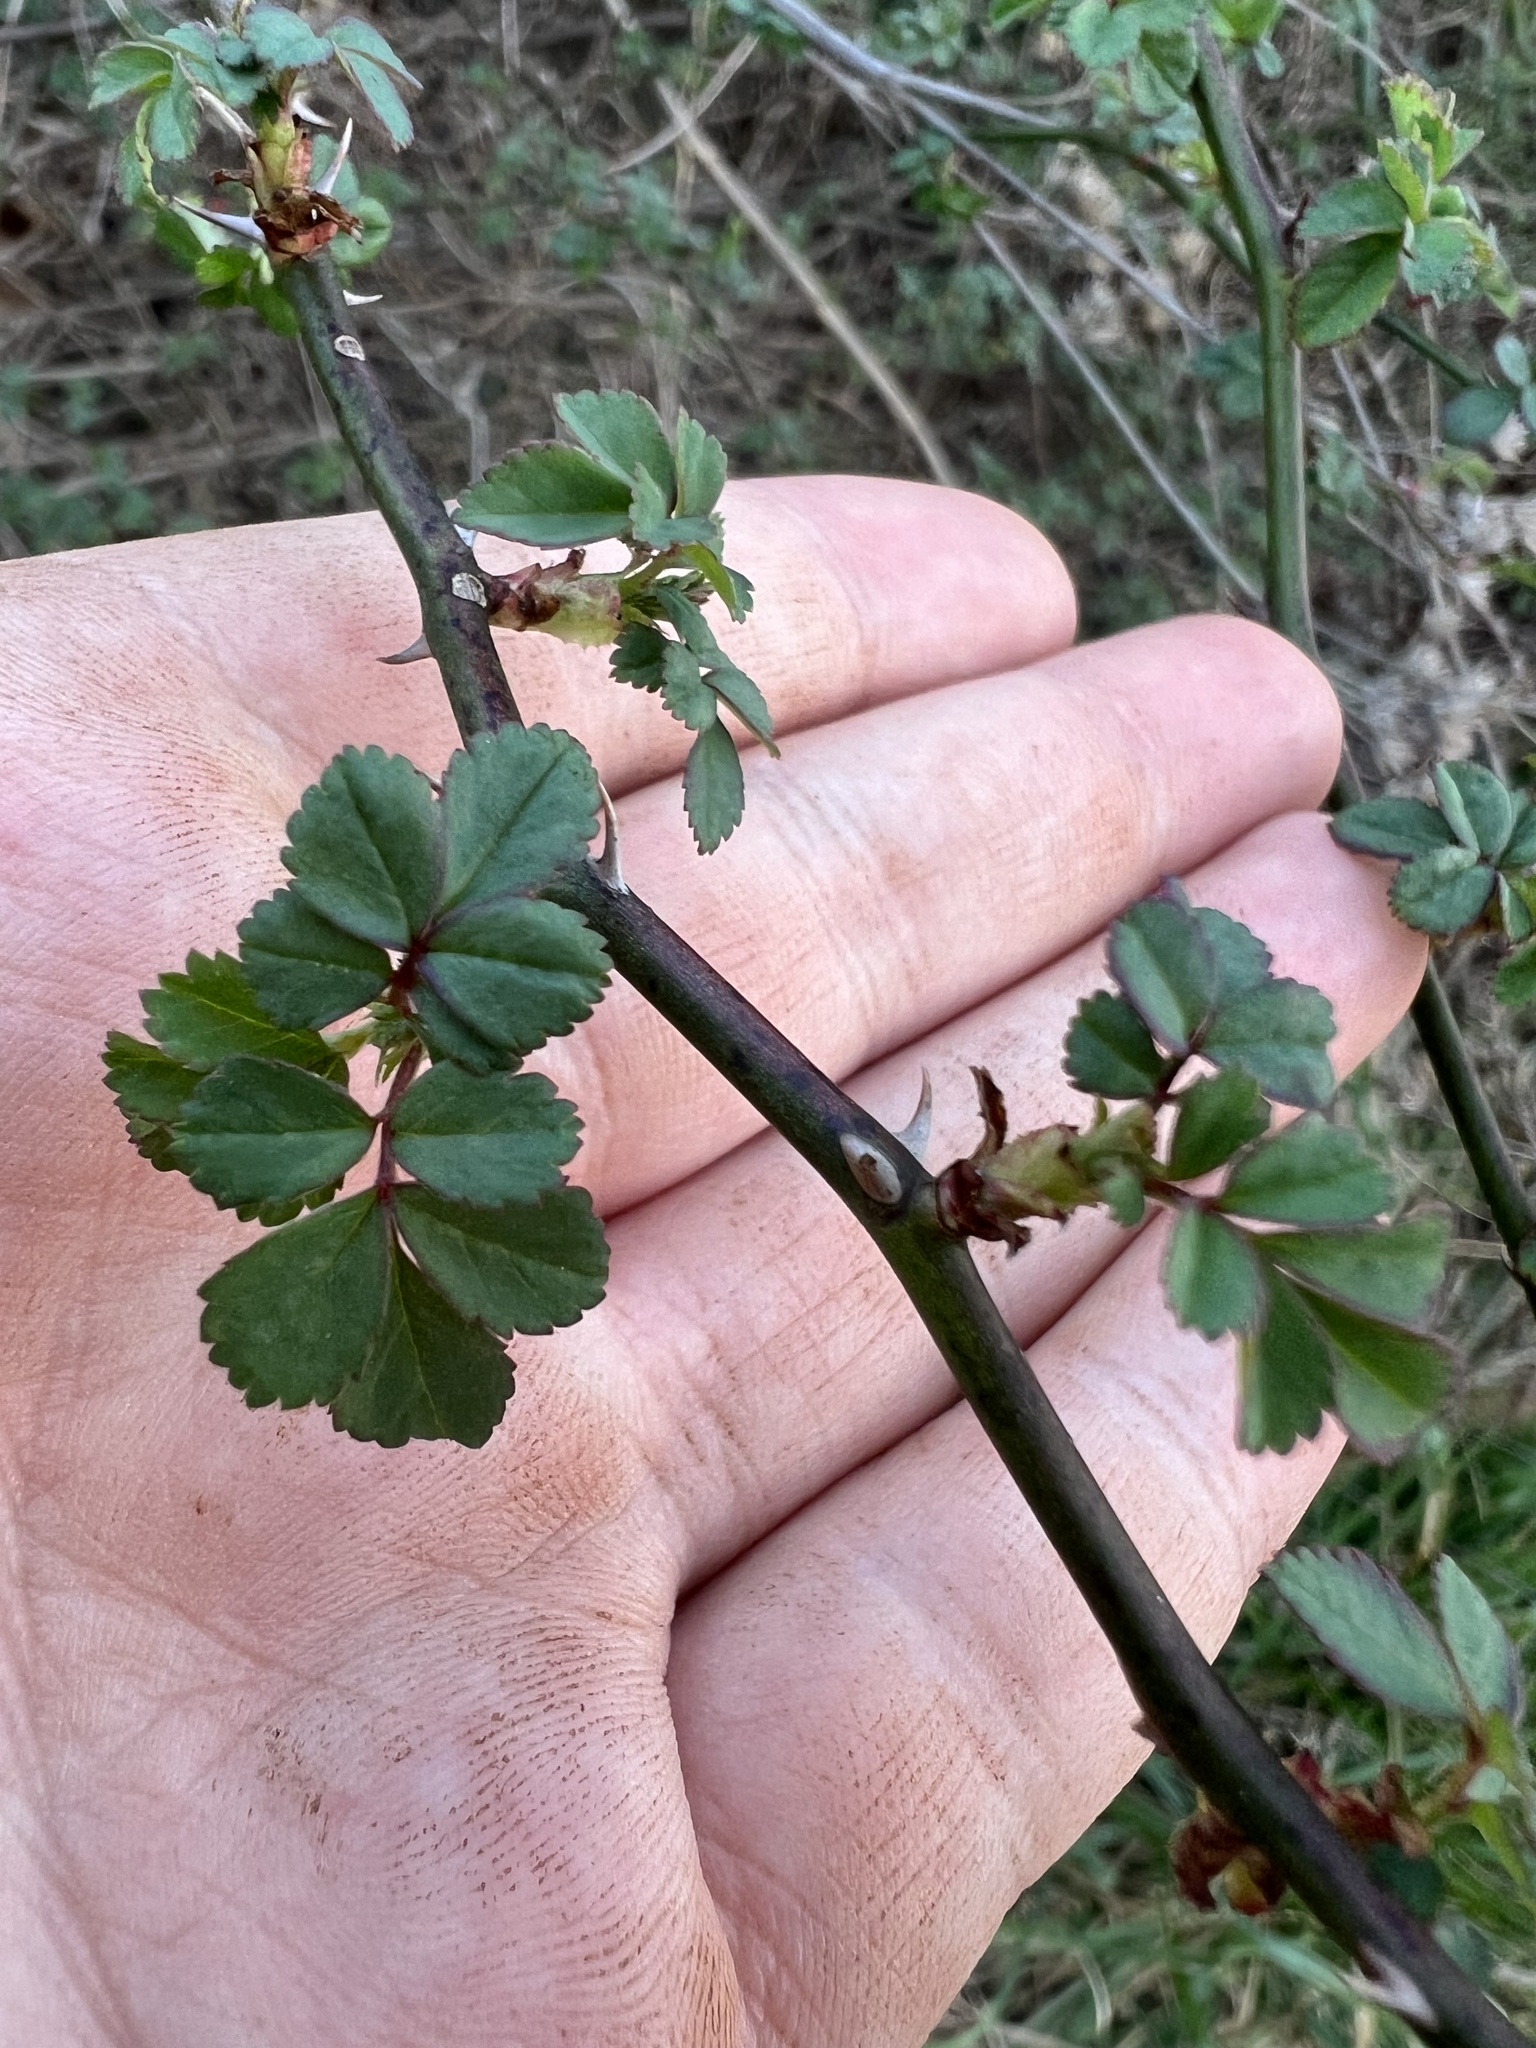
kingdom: Plantae
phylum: Tracheophyta
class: Magnoliopsida
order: Rosales
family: Rosaceae
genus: Rosa
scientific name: Rosa multiflora
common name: Multiflora rose
